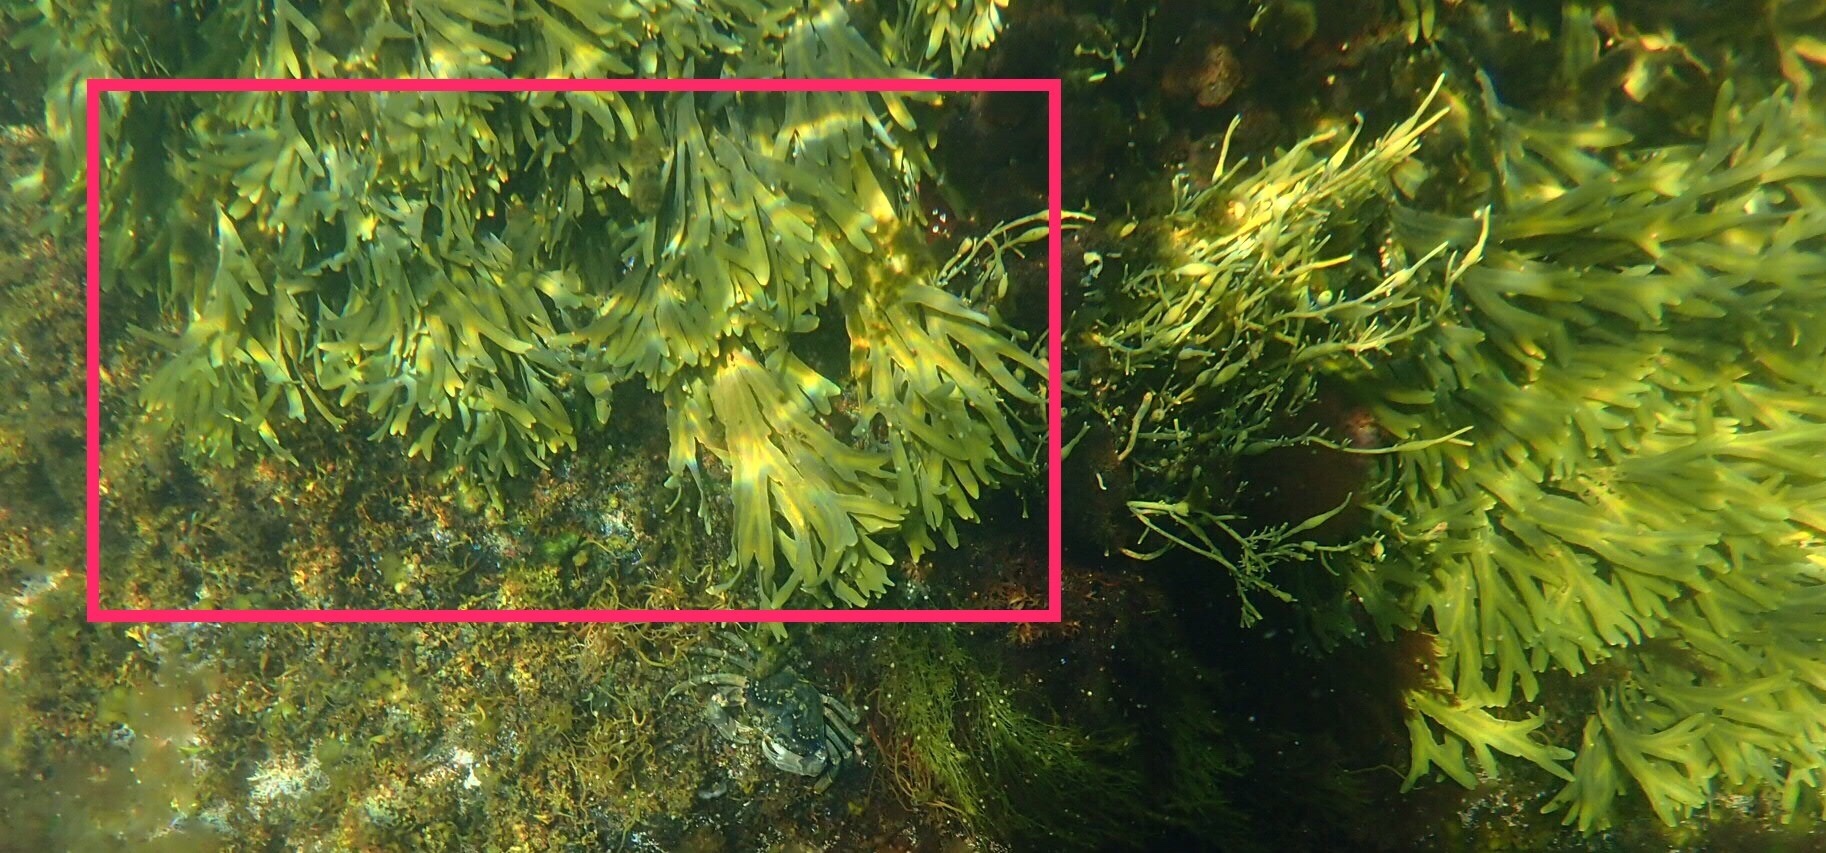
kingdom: Chromista
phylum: Ochrophyta
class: Phaeophyceae
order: Fucales
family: Fucaceae
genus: Fucus
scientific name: Fucus distichus
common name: Rockweed
